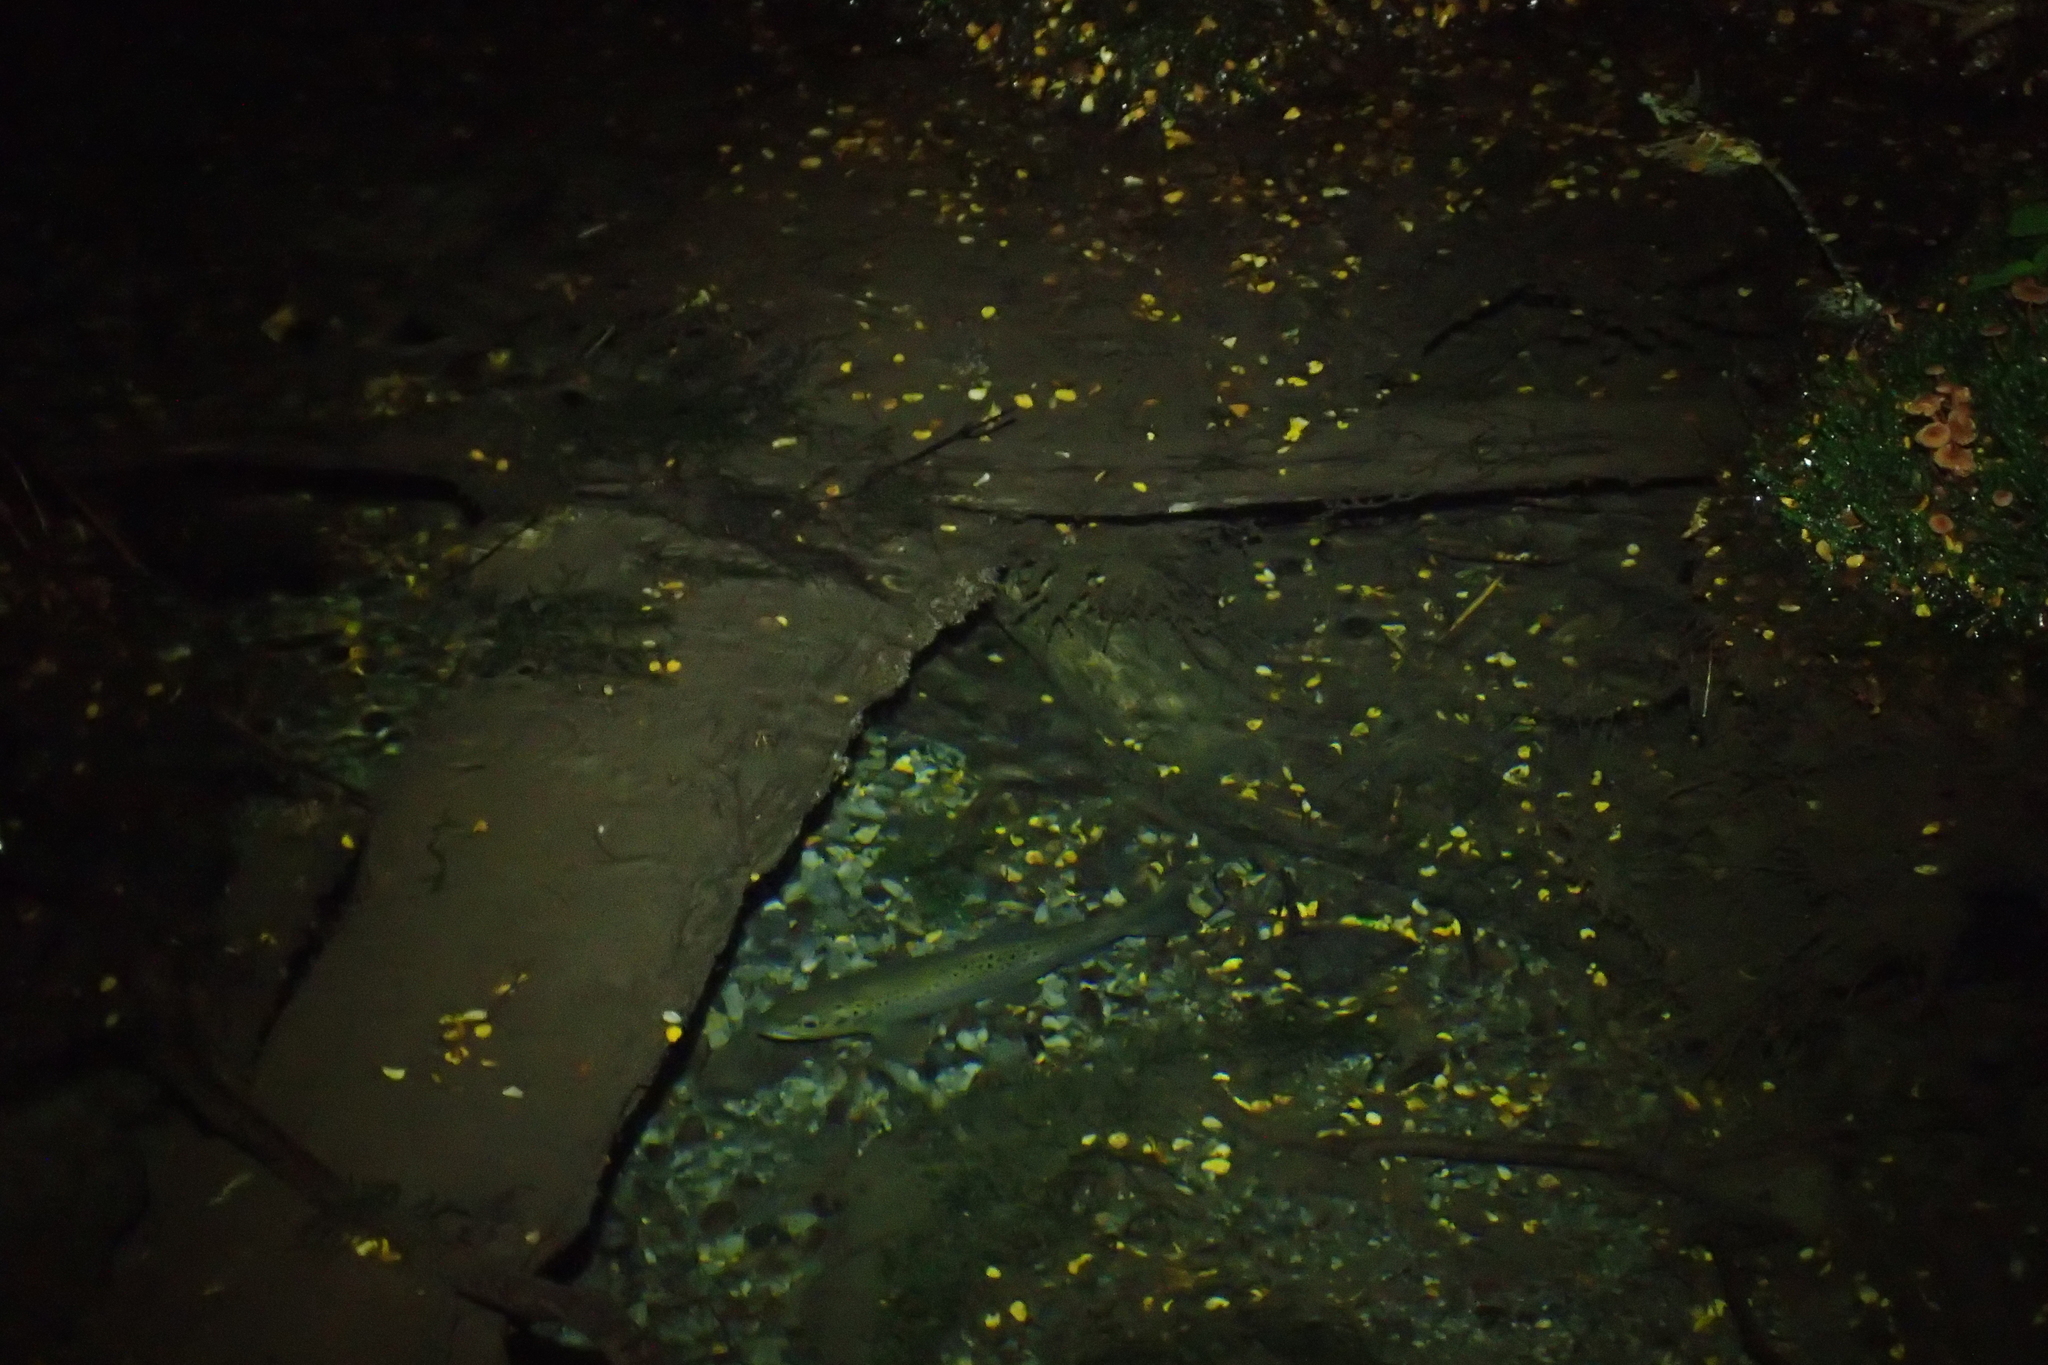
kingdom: Animalia
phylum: Chordata
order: Salmoniformes
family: Salmonidae
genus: Salmo
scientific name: Salmo trutta
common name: Brown trout
